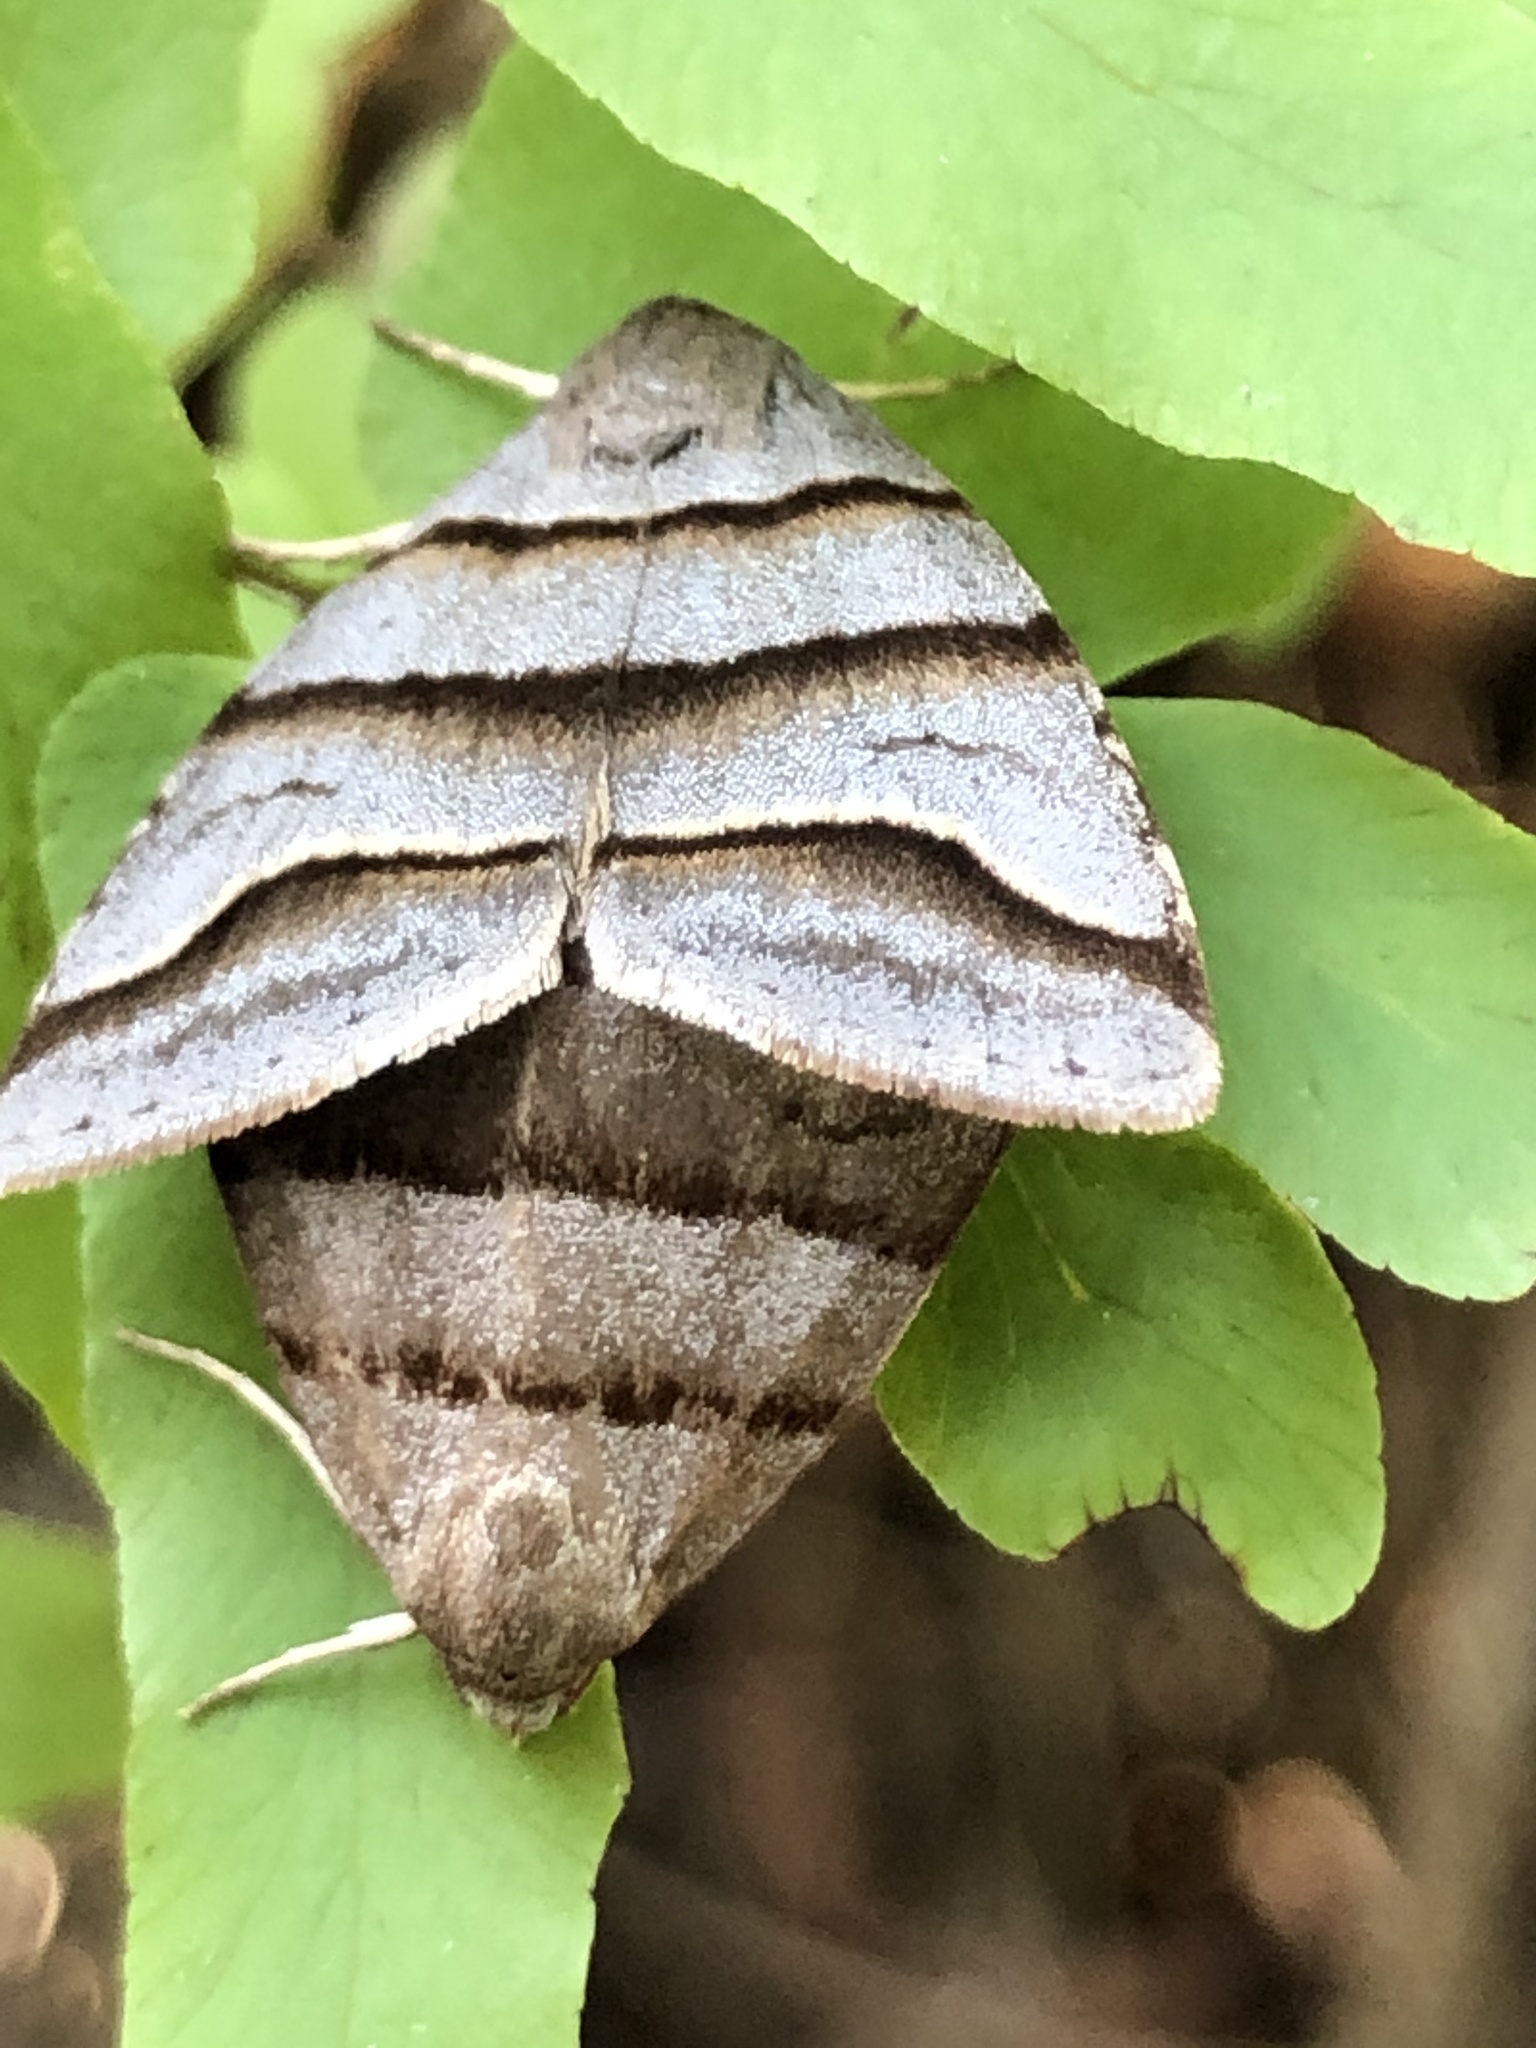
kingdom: Animalia
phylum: Arthropoda
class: Insecta
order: Lepidoptera
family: Noctuidae
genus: Flammona
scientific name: Flammona trilineata
